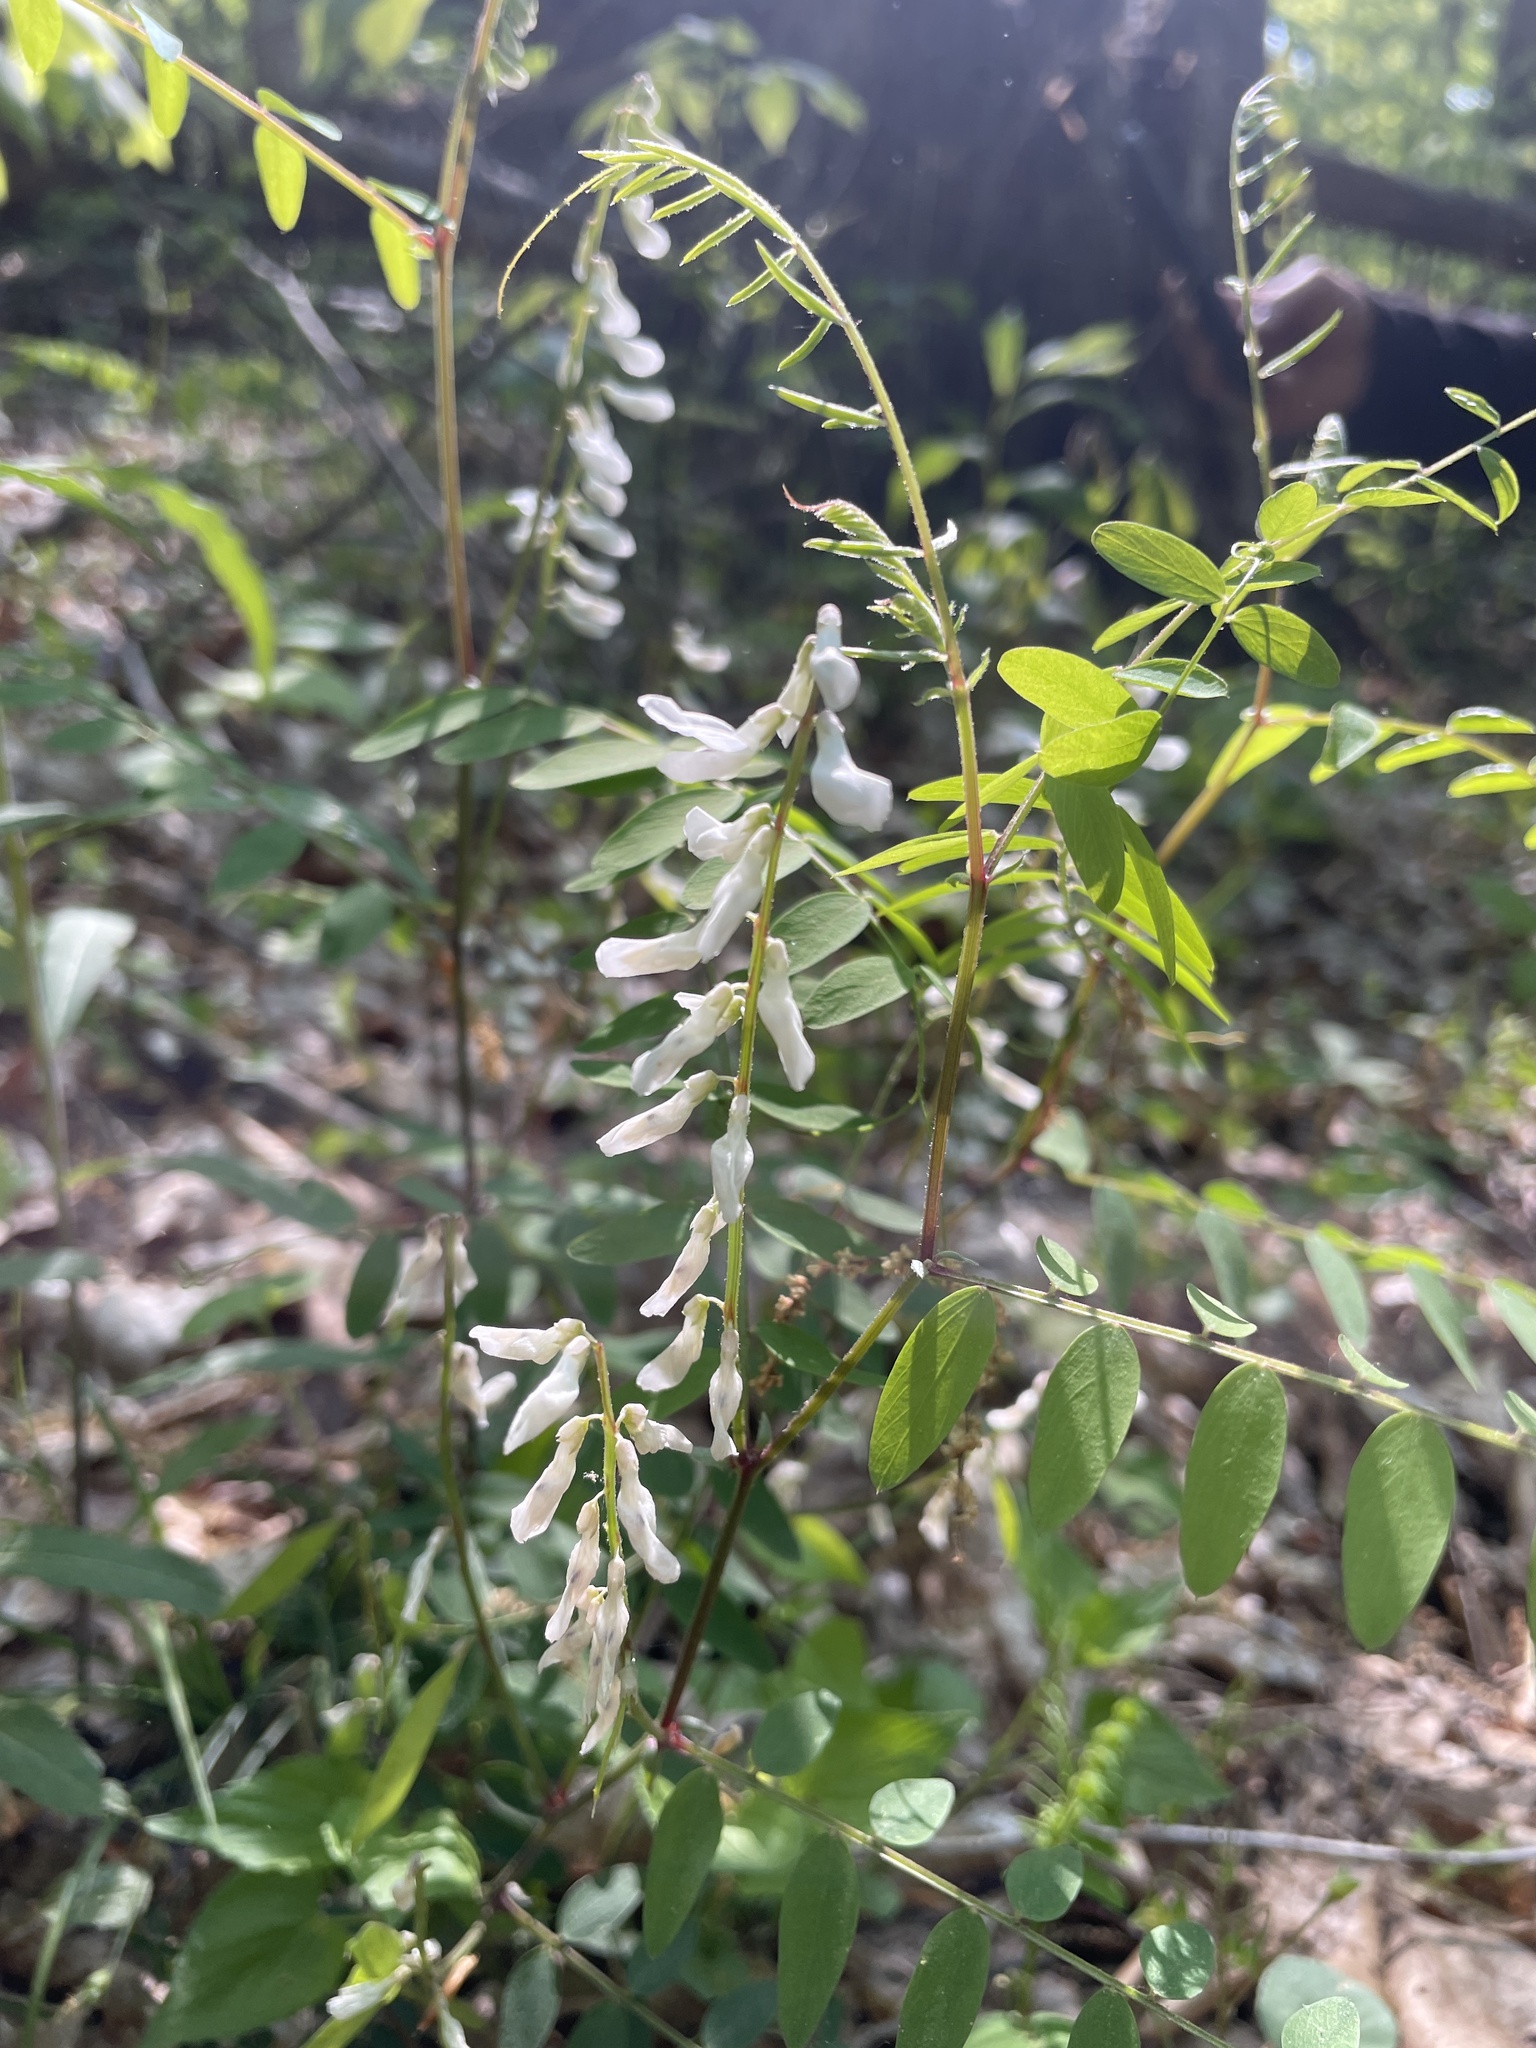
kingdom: Plantae
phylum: Tracheophyta
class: Magnoliopsida
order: Fabales
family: Fabaceae
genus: Vicia
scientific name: Vicia caroliniana
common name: Carolina vetch
